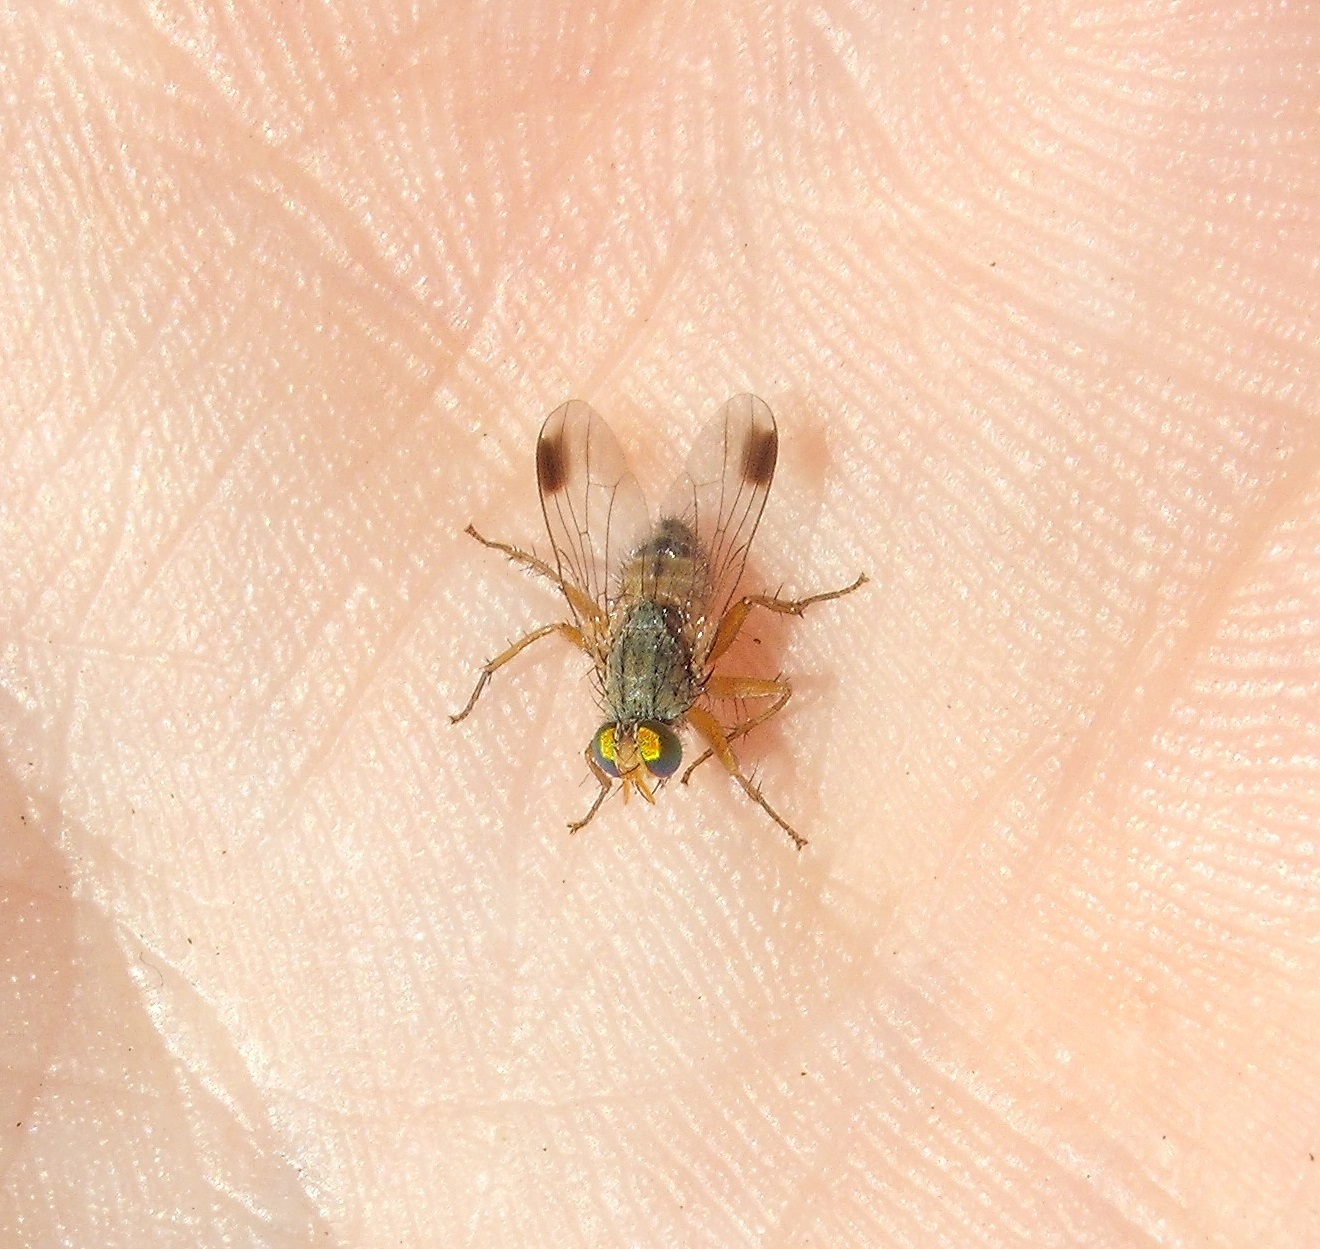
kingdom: Animalia
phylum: Arthropoda
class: Insecta
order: Diptera
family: Muscidae
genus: Pygophora
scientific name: Pygophora apicalis
